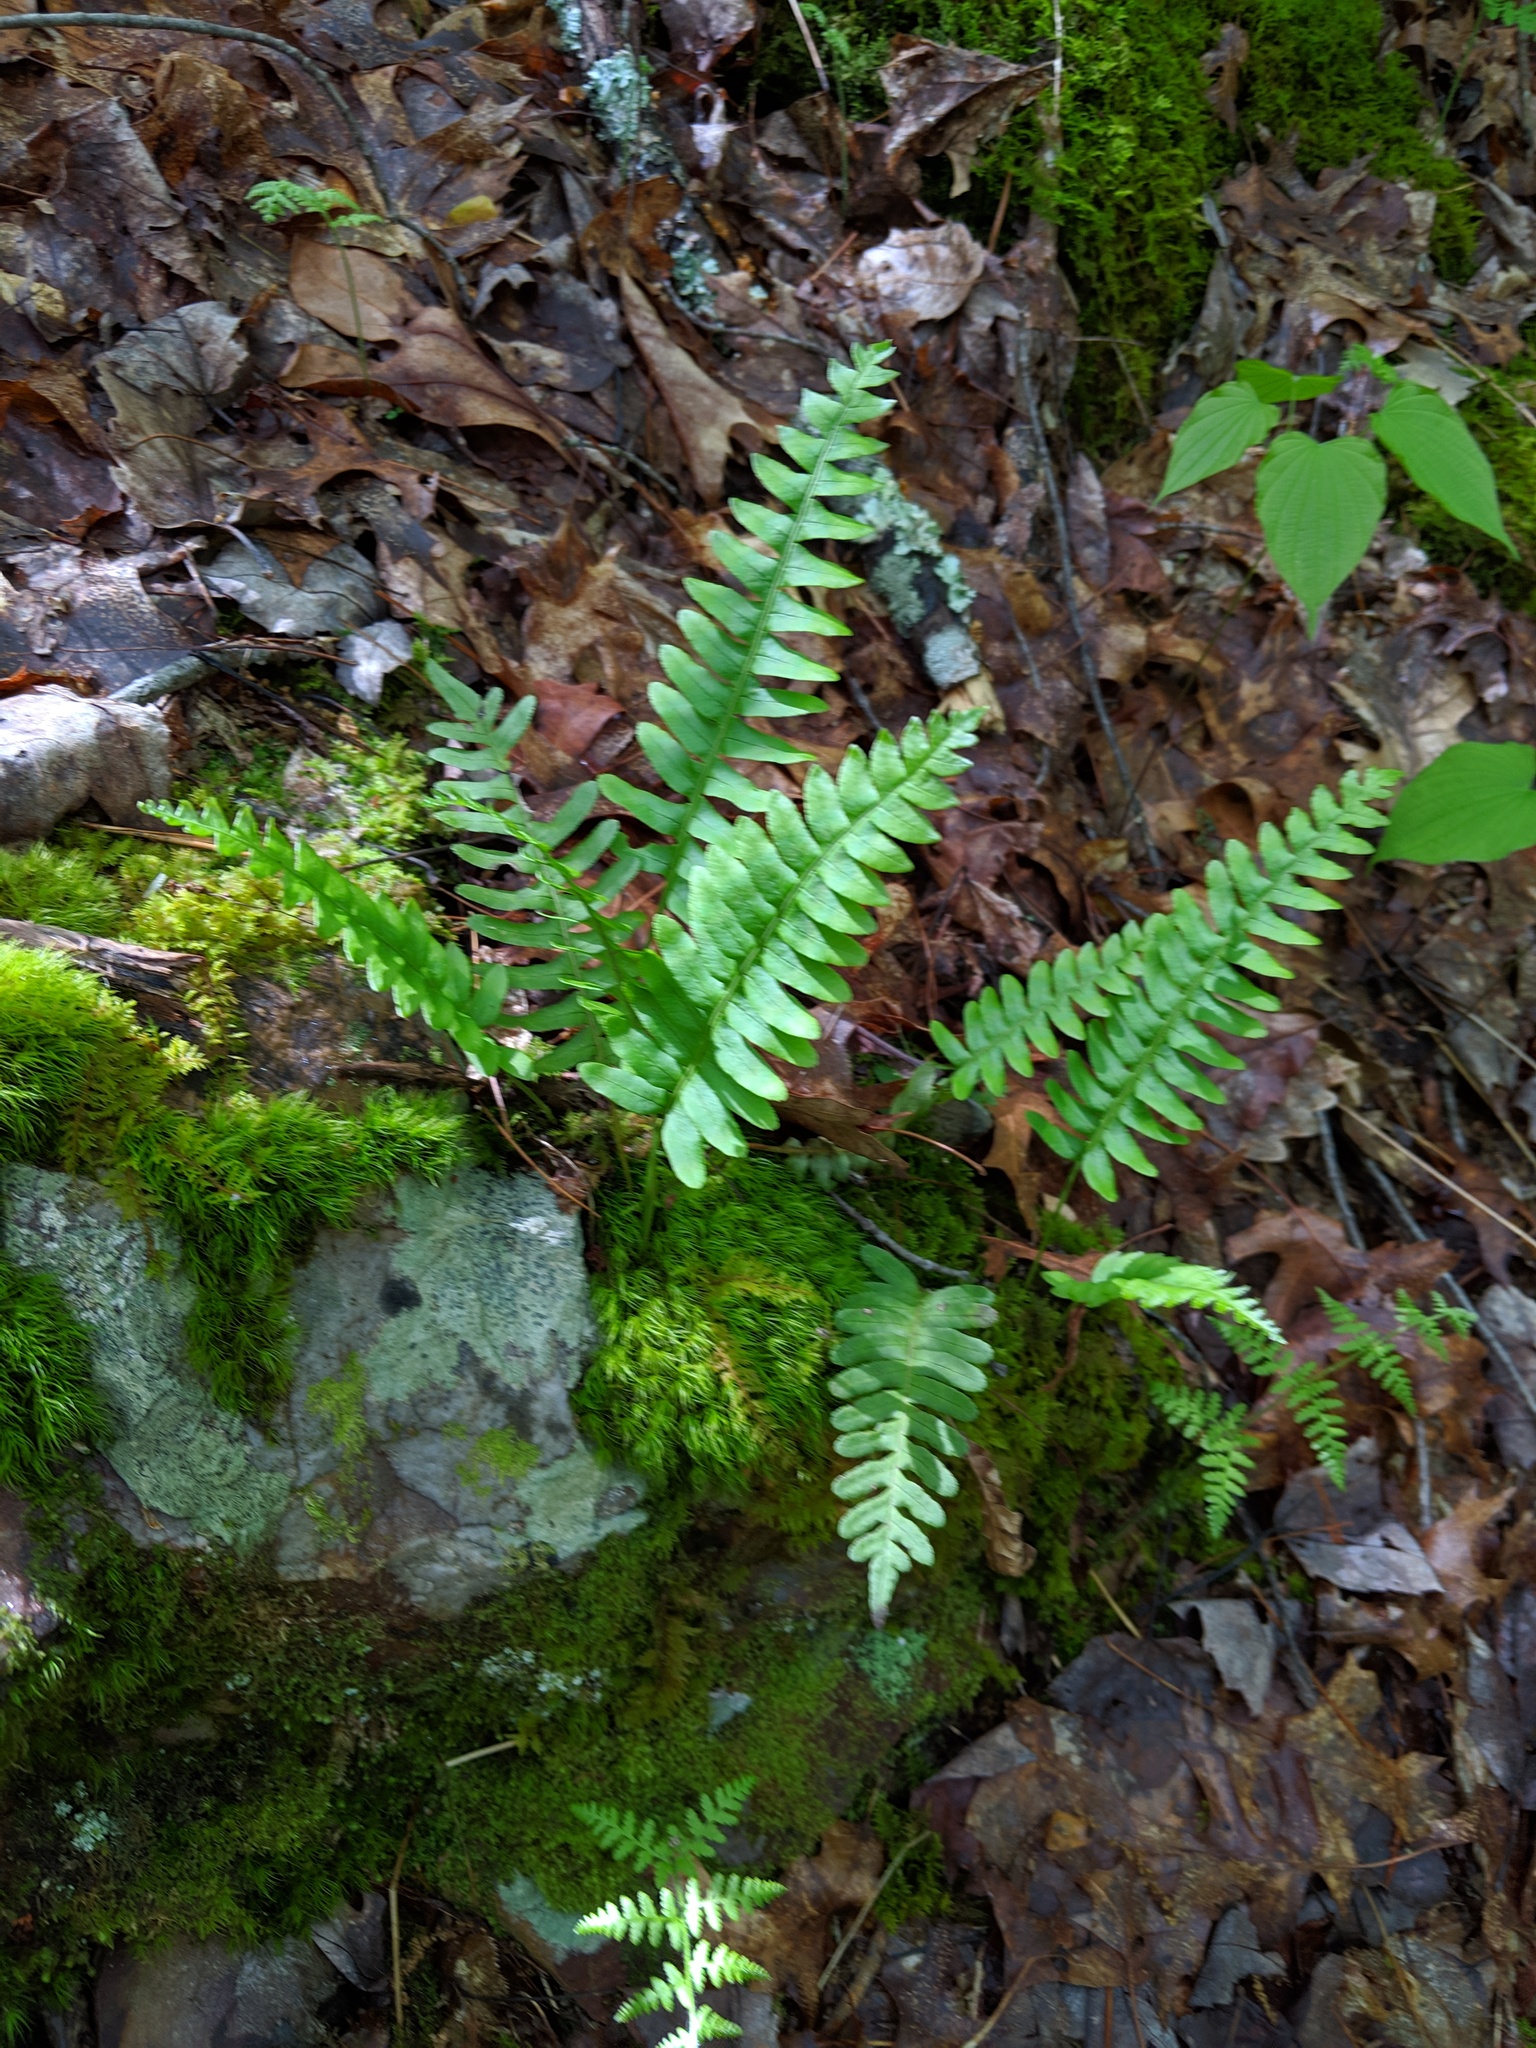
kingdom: Plantae
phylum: Tracheophyta
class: Polypodiopsida
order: Polypodiales
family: Polypodiaceae
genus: Polypodium
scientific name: Polypodium appalachianum
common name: Appalachian polypody
